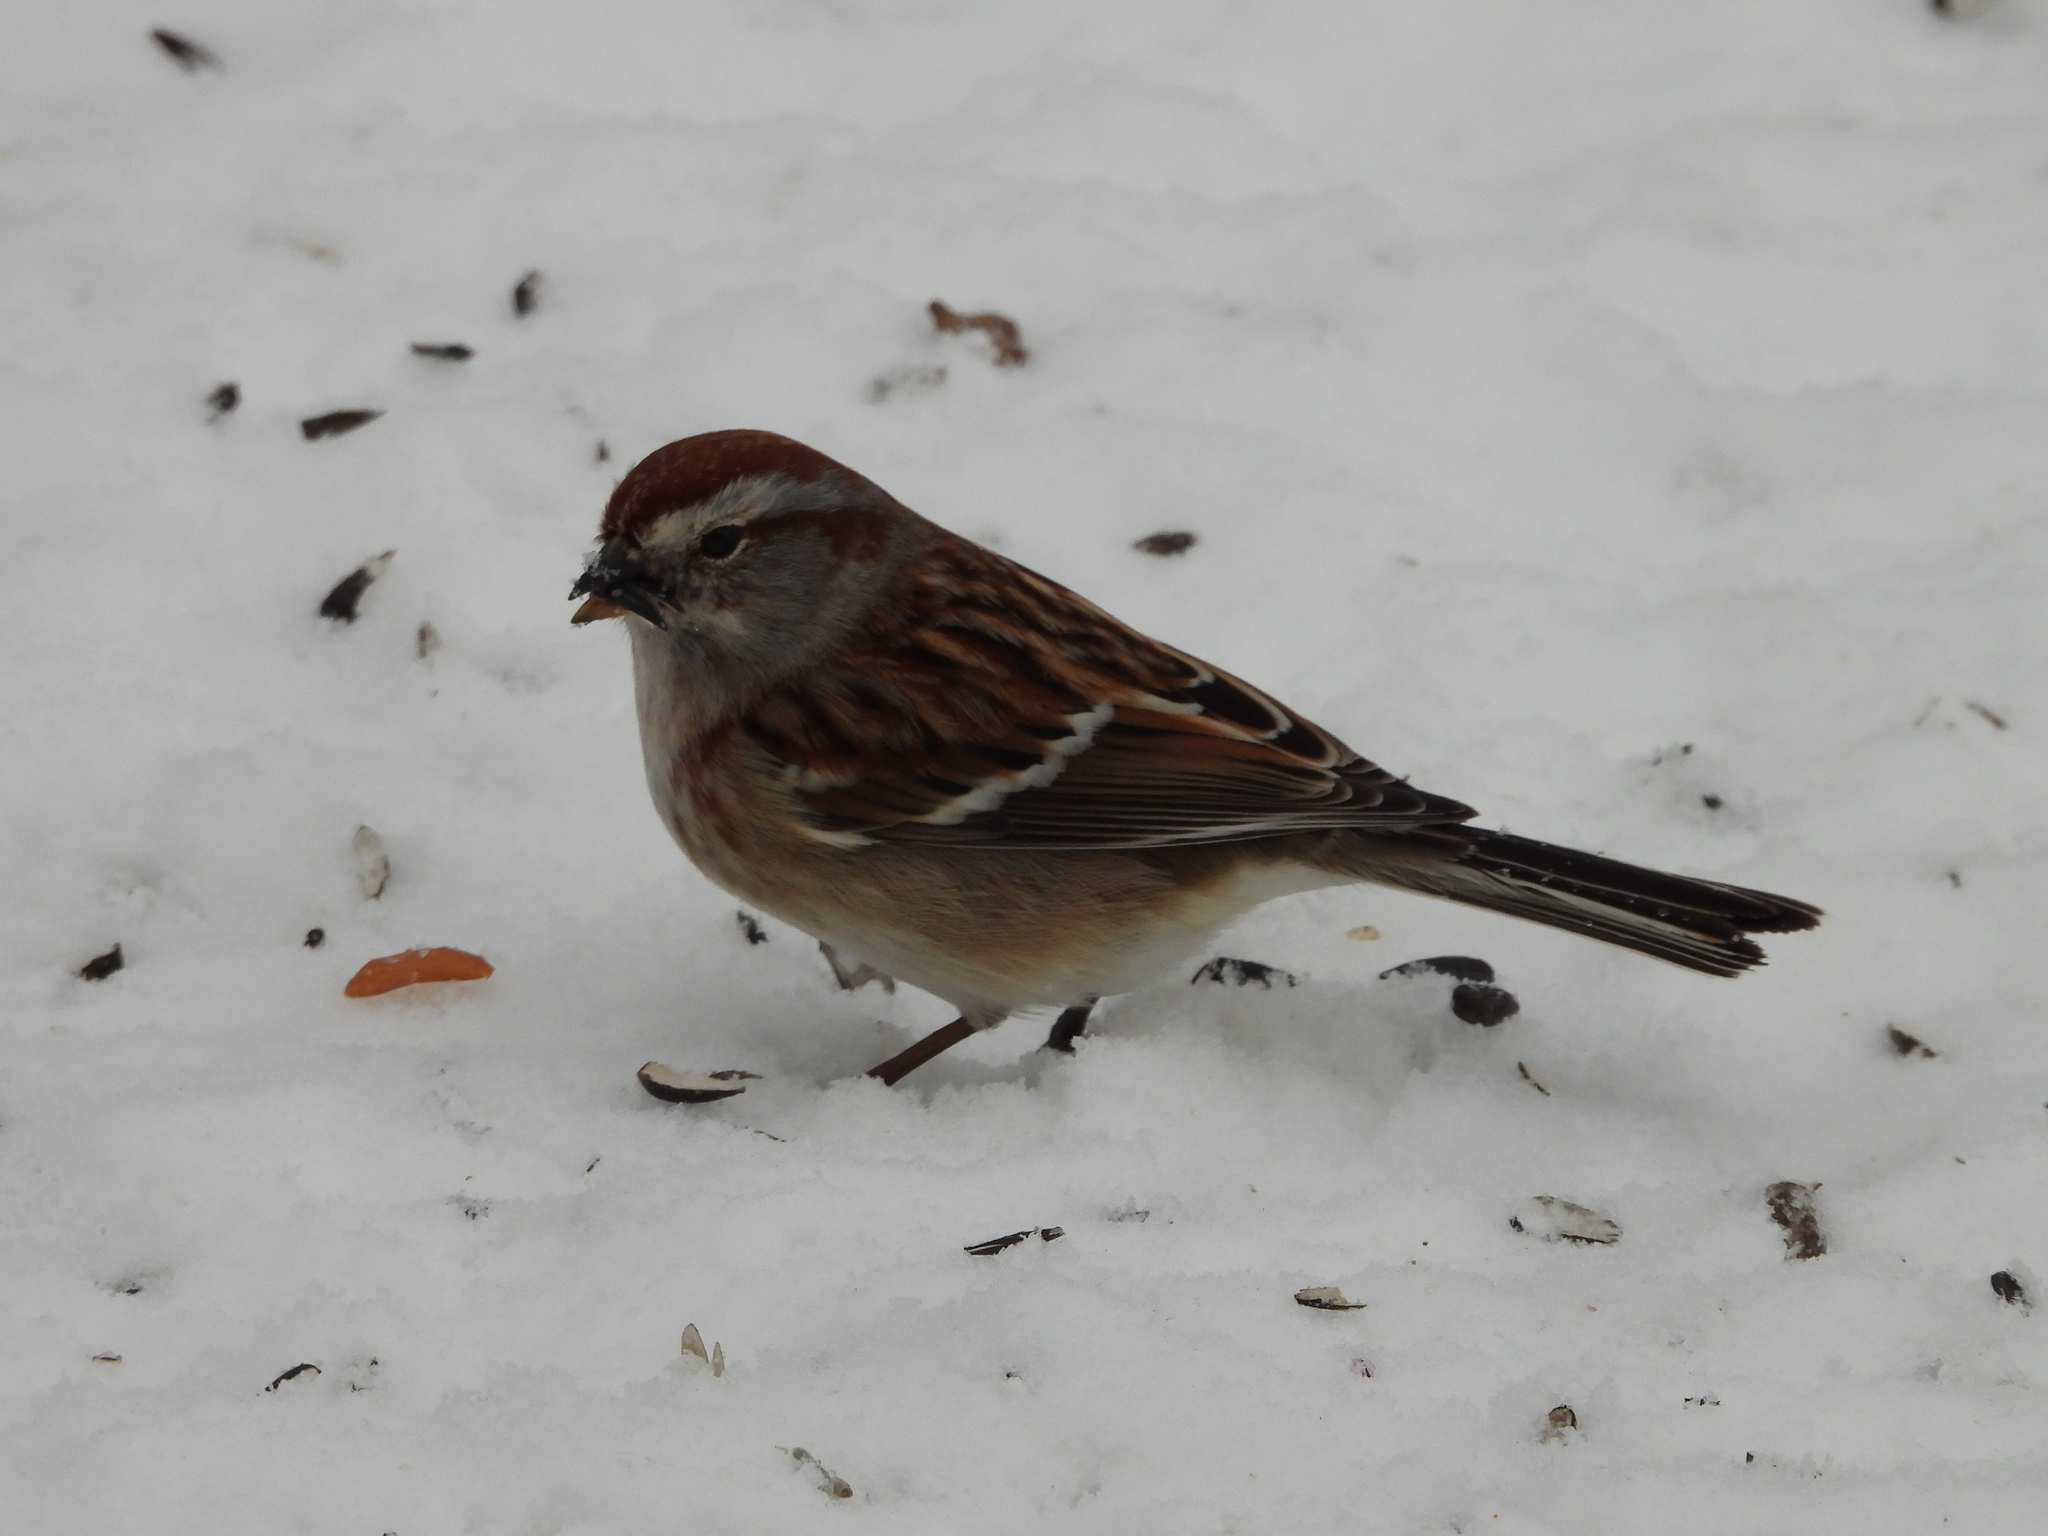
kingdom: Animalia
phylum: Chordata
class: Aves
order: Passeriformes
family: Passerellidae
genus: Spizelloides
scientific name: Spizelloides arborea
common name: American tree sparrow
